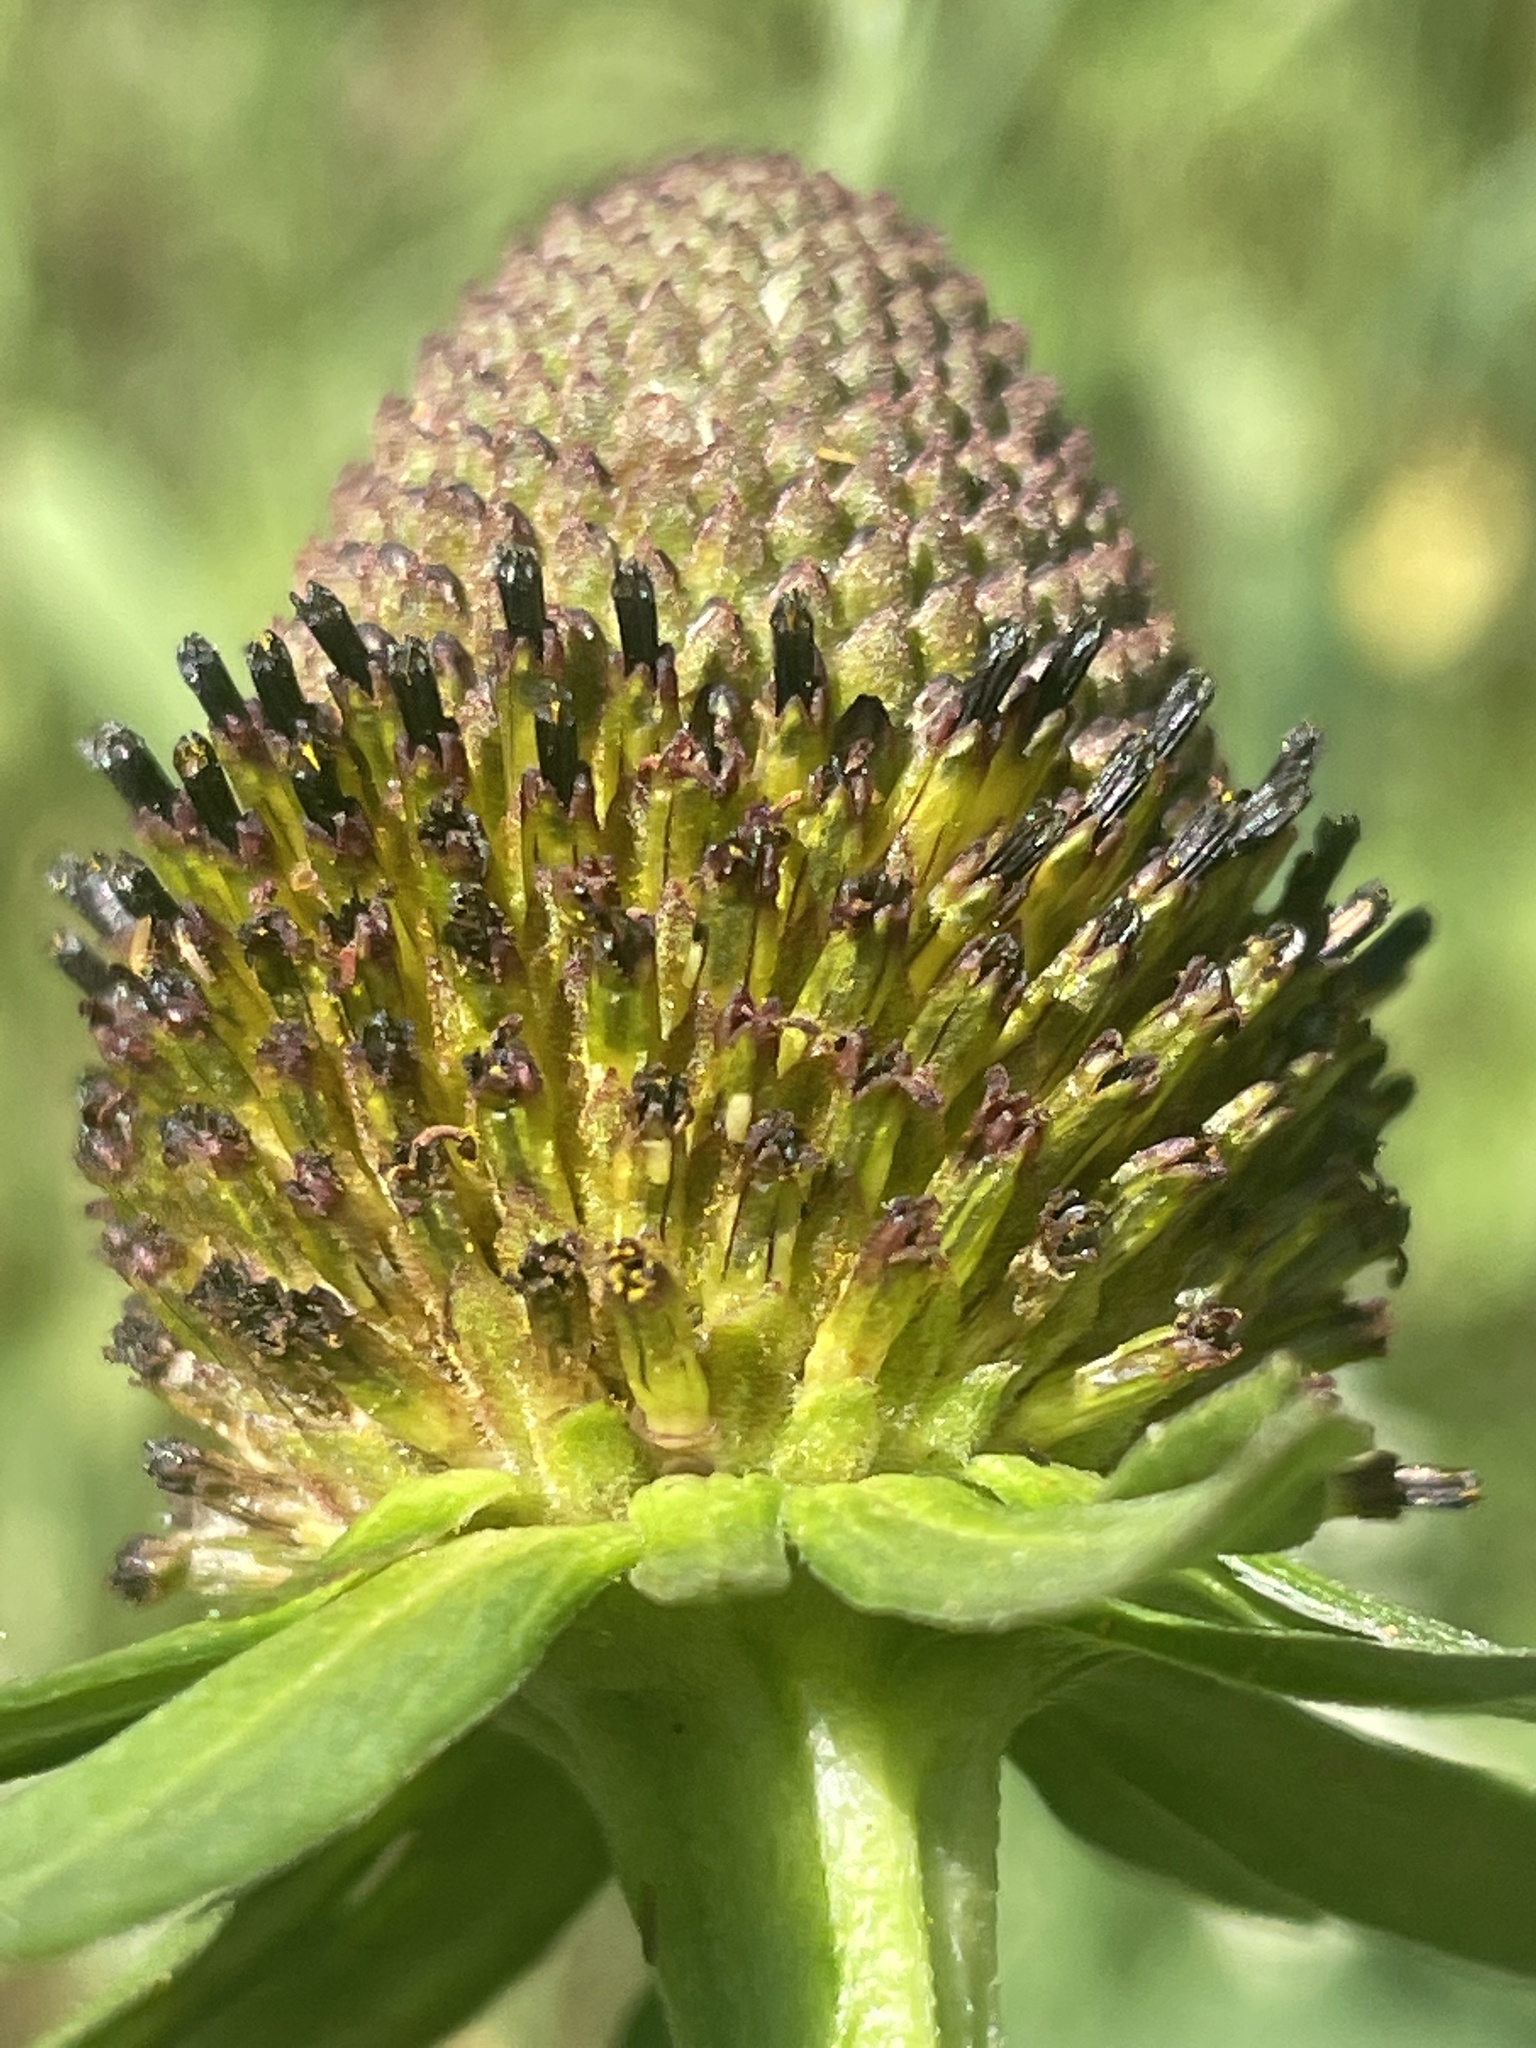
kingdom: Plantae
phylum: Tracheophyta
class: Magnoliopsida
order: Asterales
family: Asteraceae
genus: Rudbeckia
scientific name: Rudbeckia occidentalis
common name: Western coneflower
